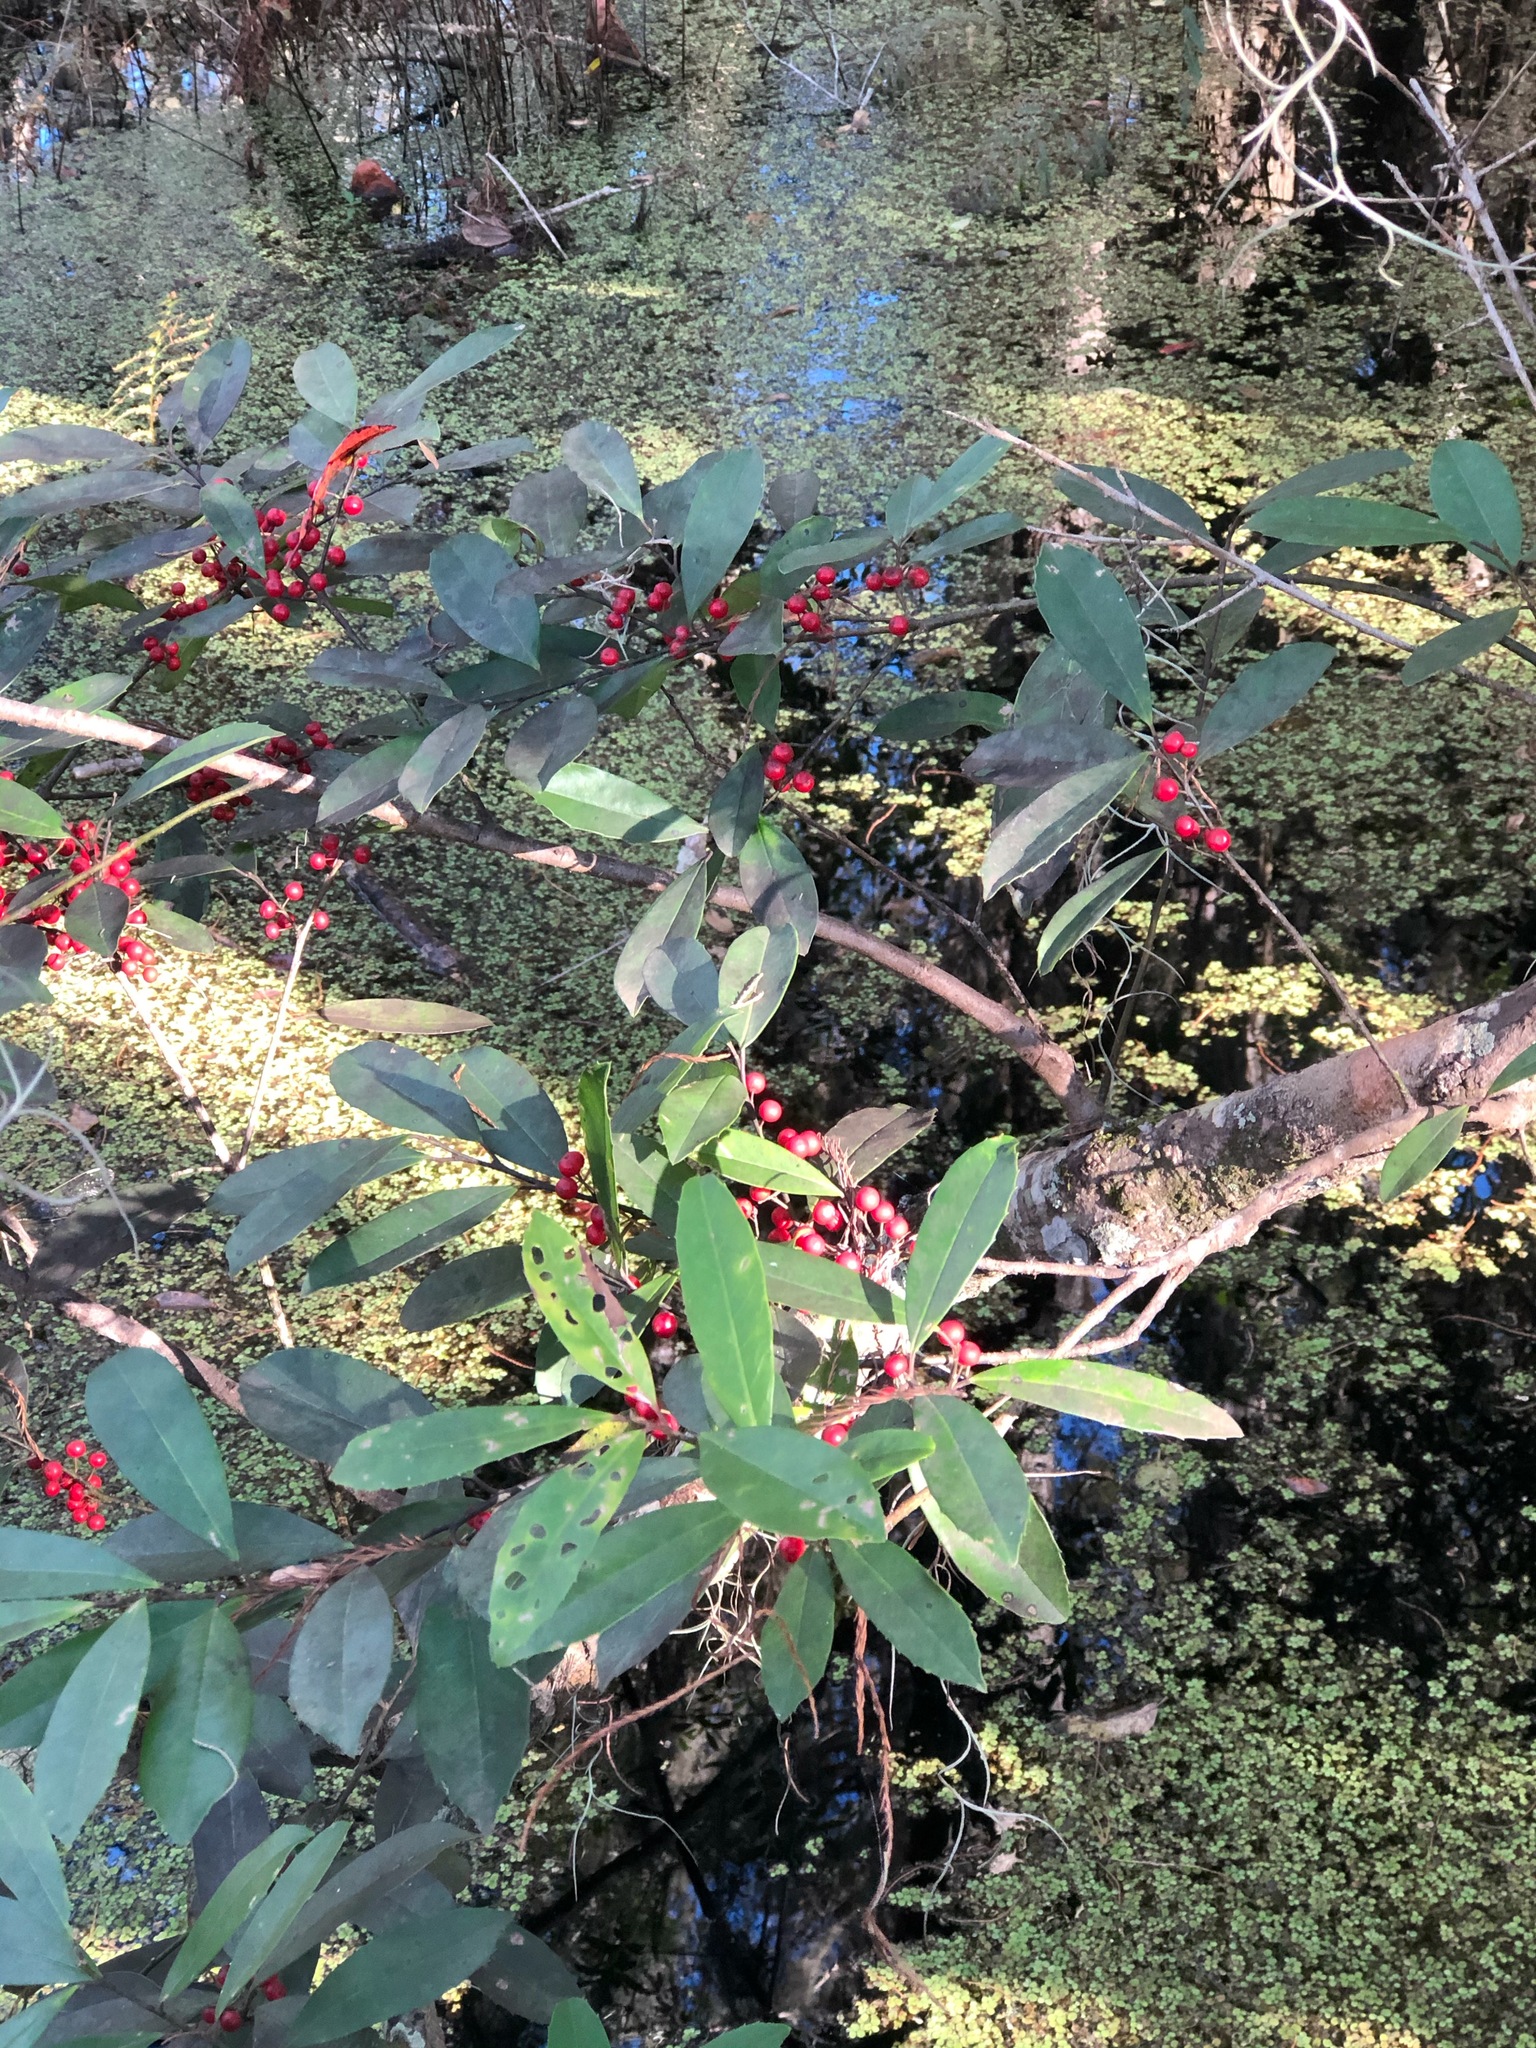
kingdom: Plantae
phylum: Tracheophyta
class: Magnoliopsida
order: Aquifoliales
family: Aquifoliaceae
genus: Ilex
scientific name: Ilex cassine
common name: Dahoon
